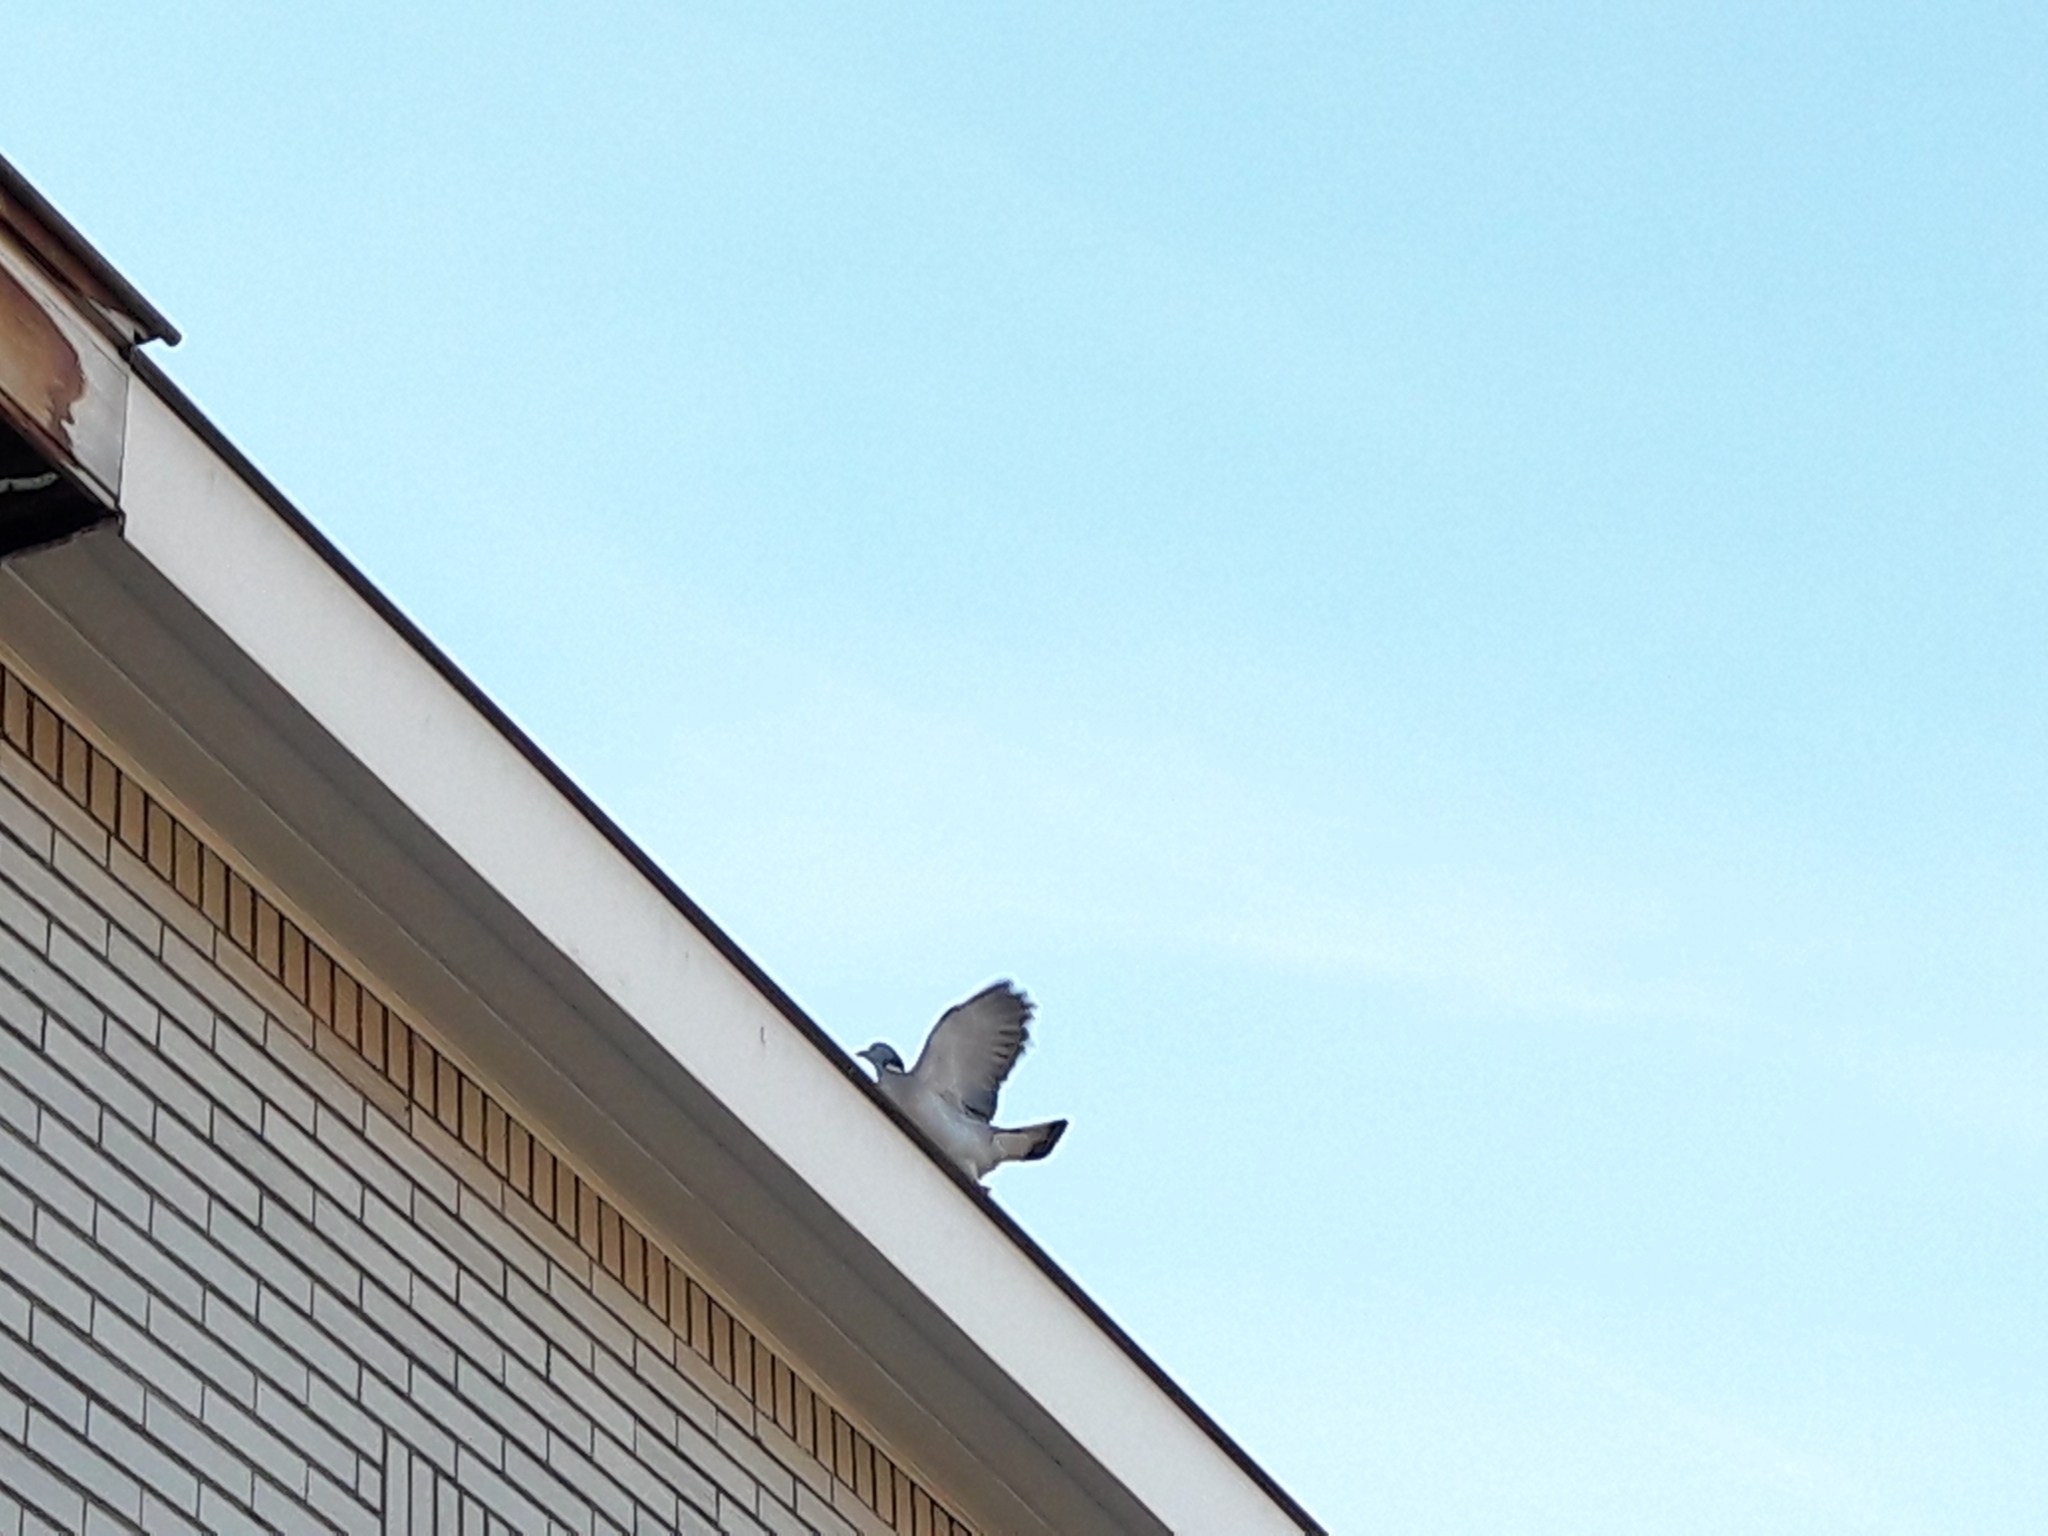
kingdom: Animalia
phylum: Chordata
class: Aves
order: Columbiformes
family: Columbidae
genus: Columba
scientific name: Columba palumbus
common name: Common wood pigeon
